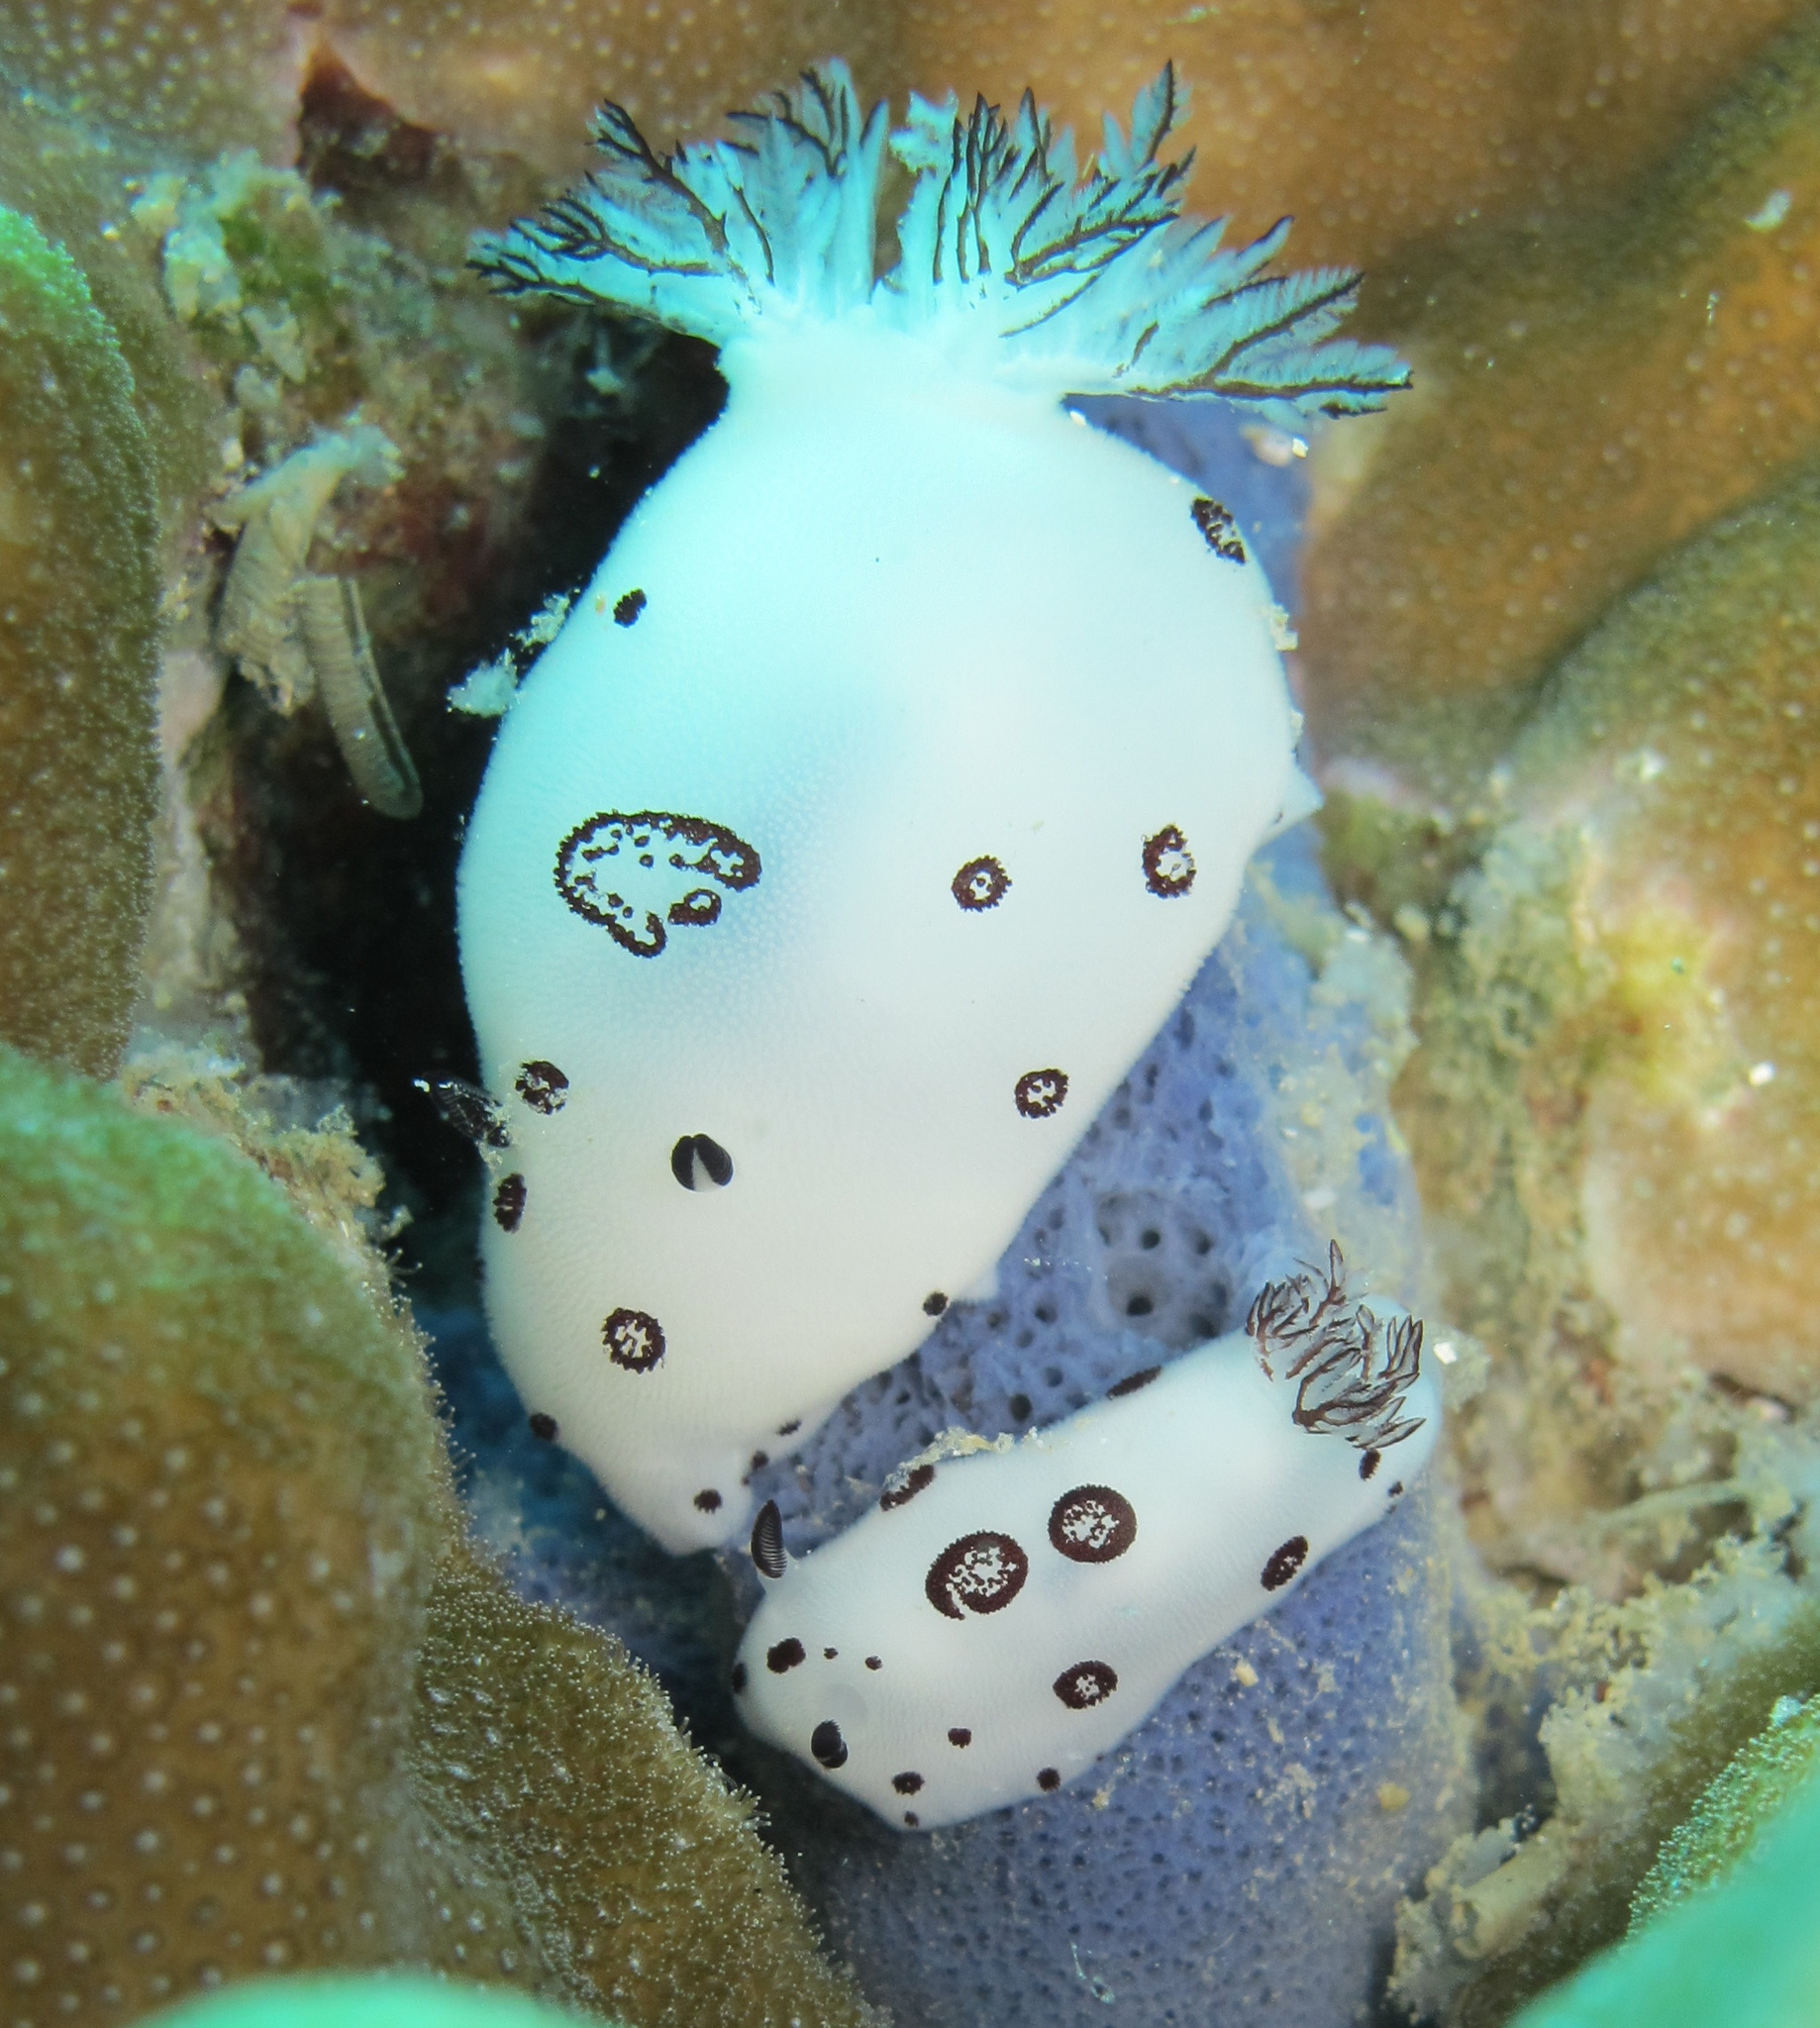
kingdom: Animalia
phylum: Mollusca
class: Gastropoda
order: Nudibranchia
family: Discodorididae
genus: Jorunna
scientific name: Jorunna funebris
